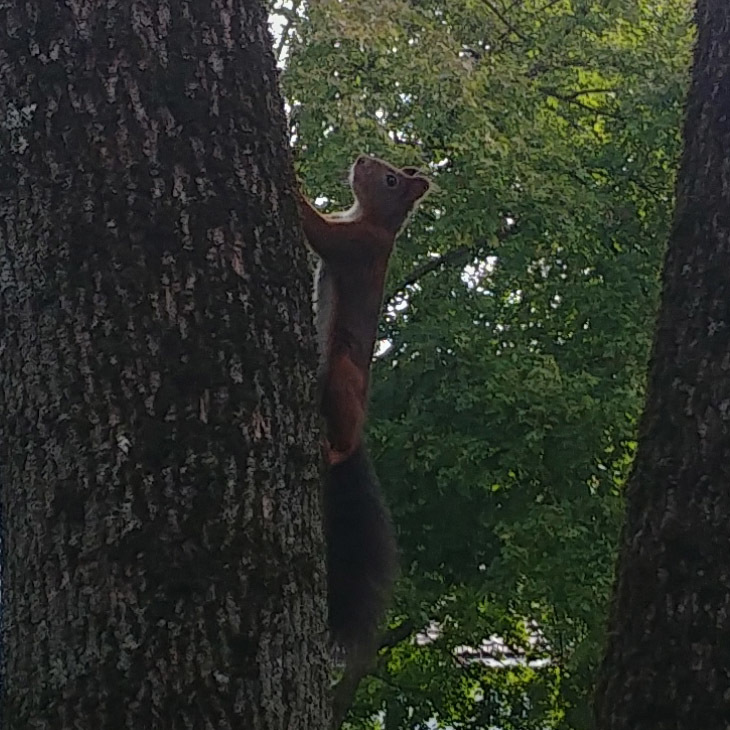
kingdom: Animalia
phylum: Chordata
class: Mammalia
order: Rodentia
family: Sciuridae
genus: Sciurus
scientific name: Sciurus vulgaris
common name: Eurasian red squirrel
